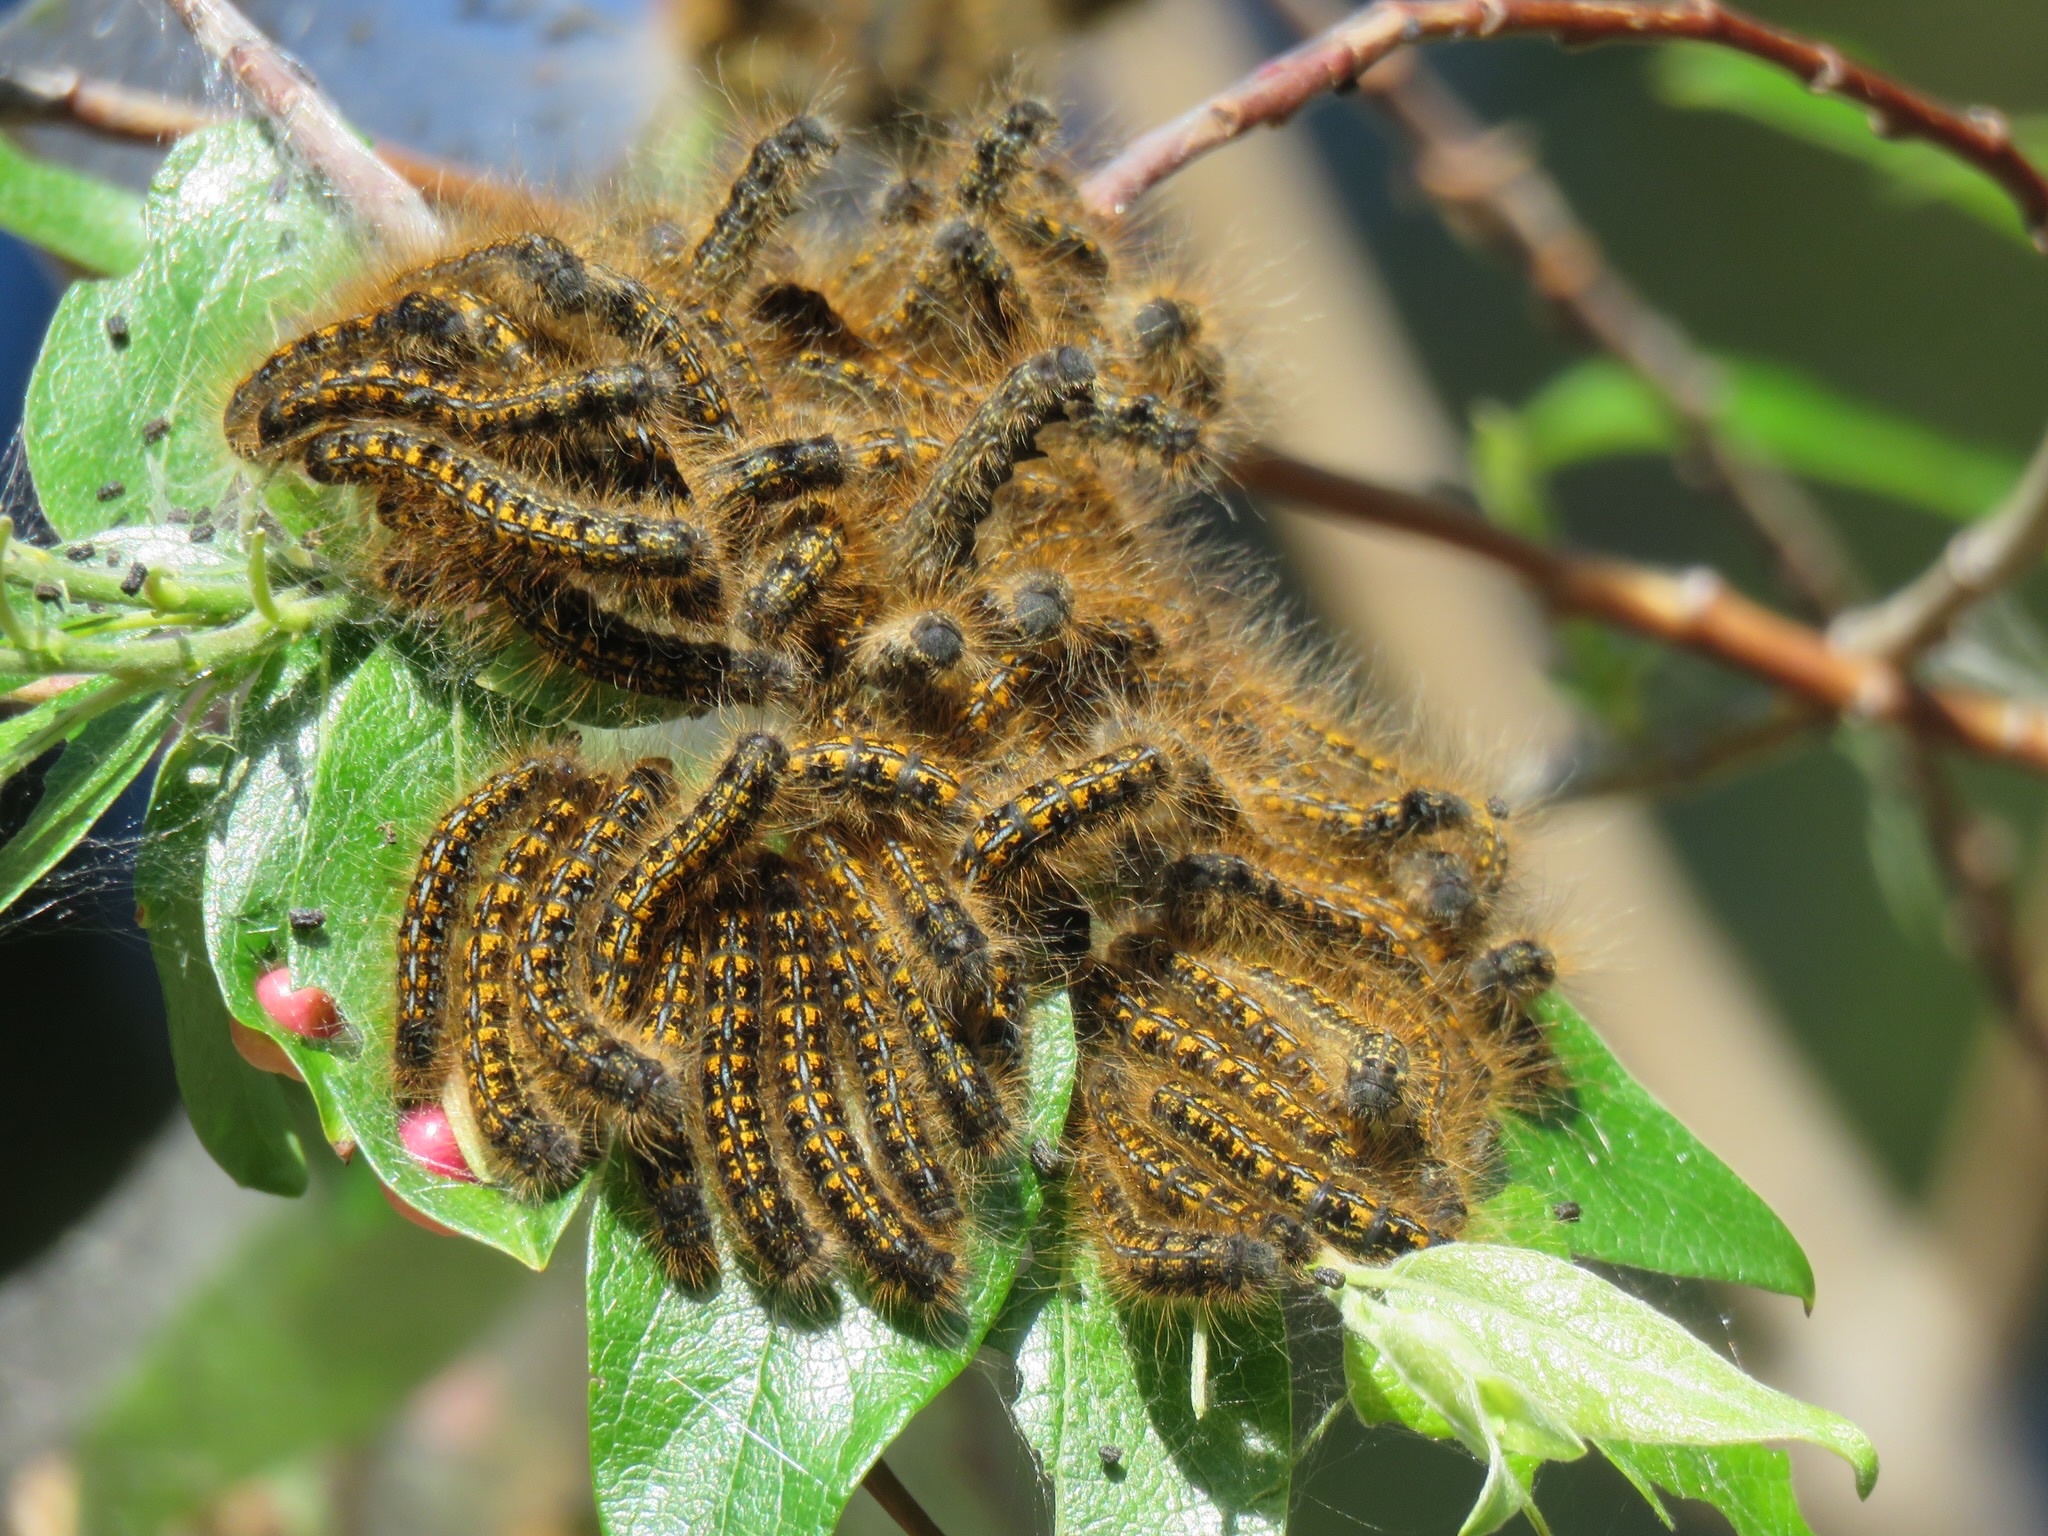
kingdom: Animalia
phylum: Arthropoda
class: Insecta
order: Lepidoptera
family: Lasiocampidae
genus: Malacosoma
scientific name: Malacosoma californica
